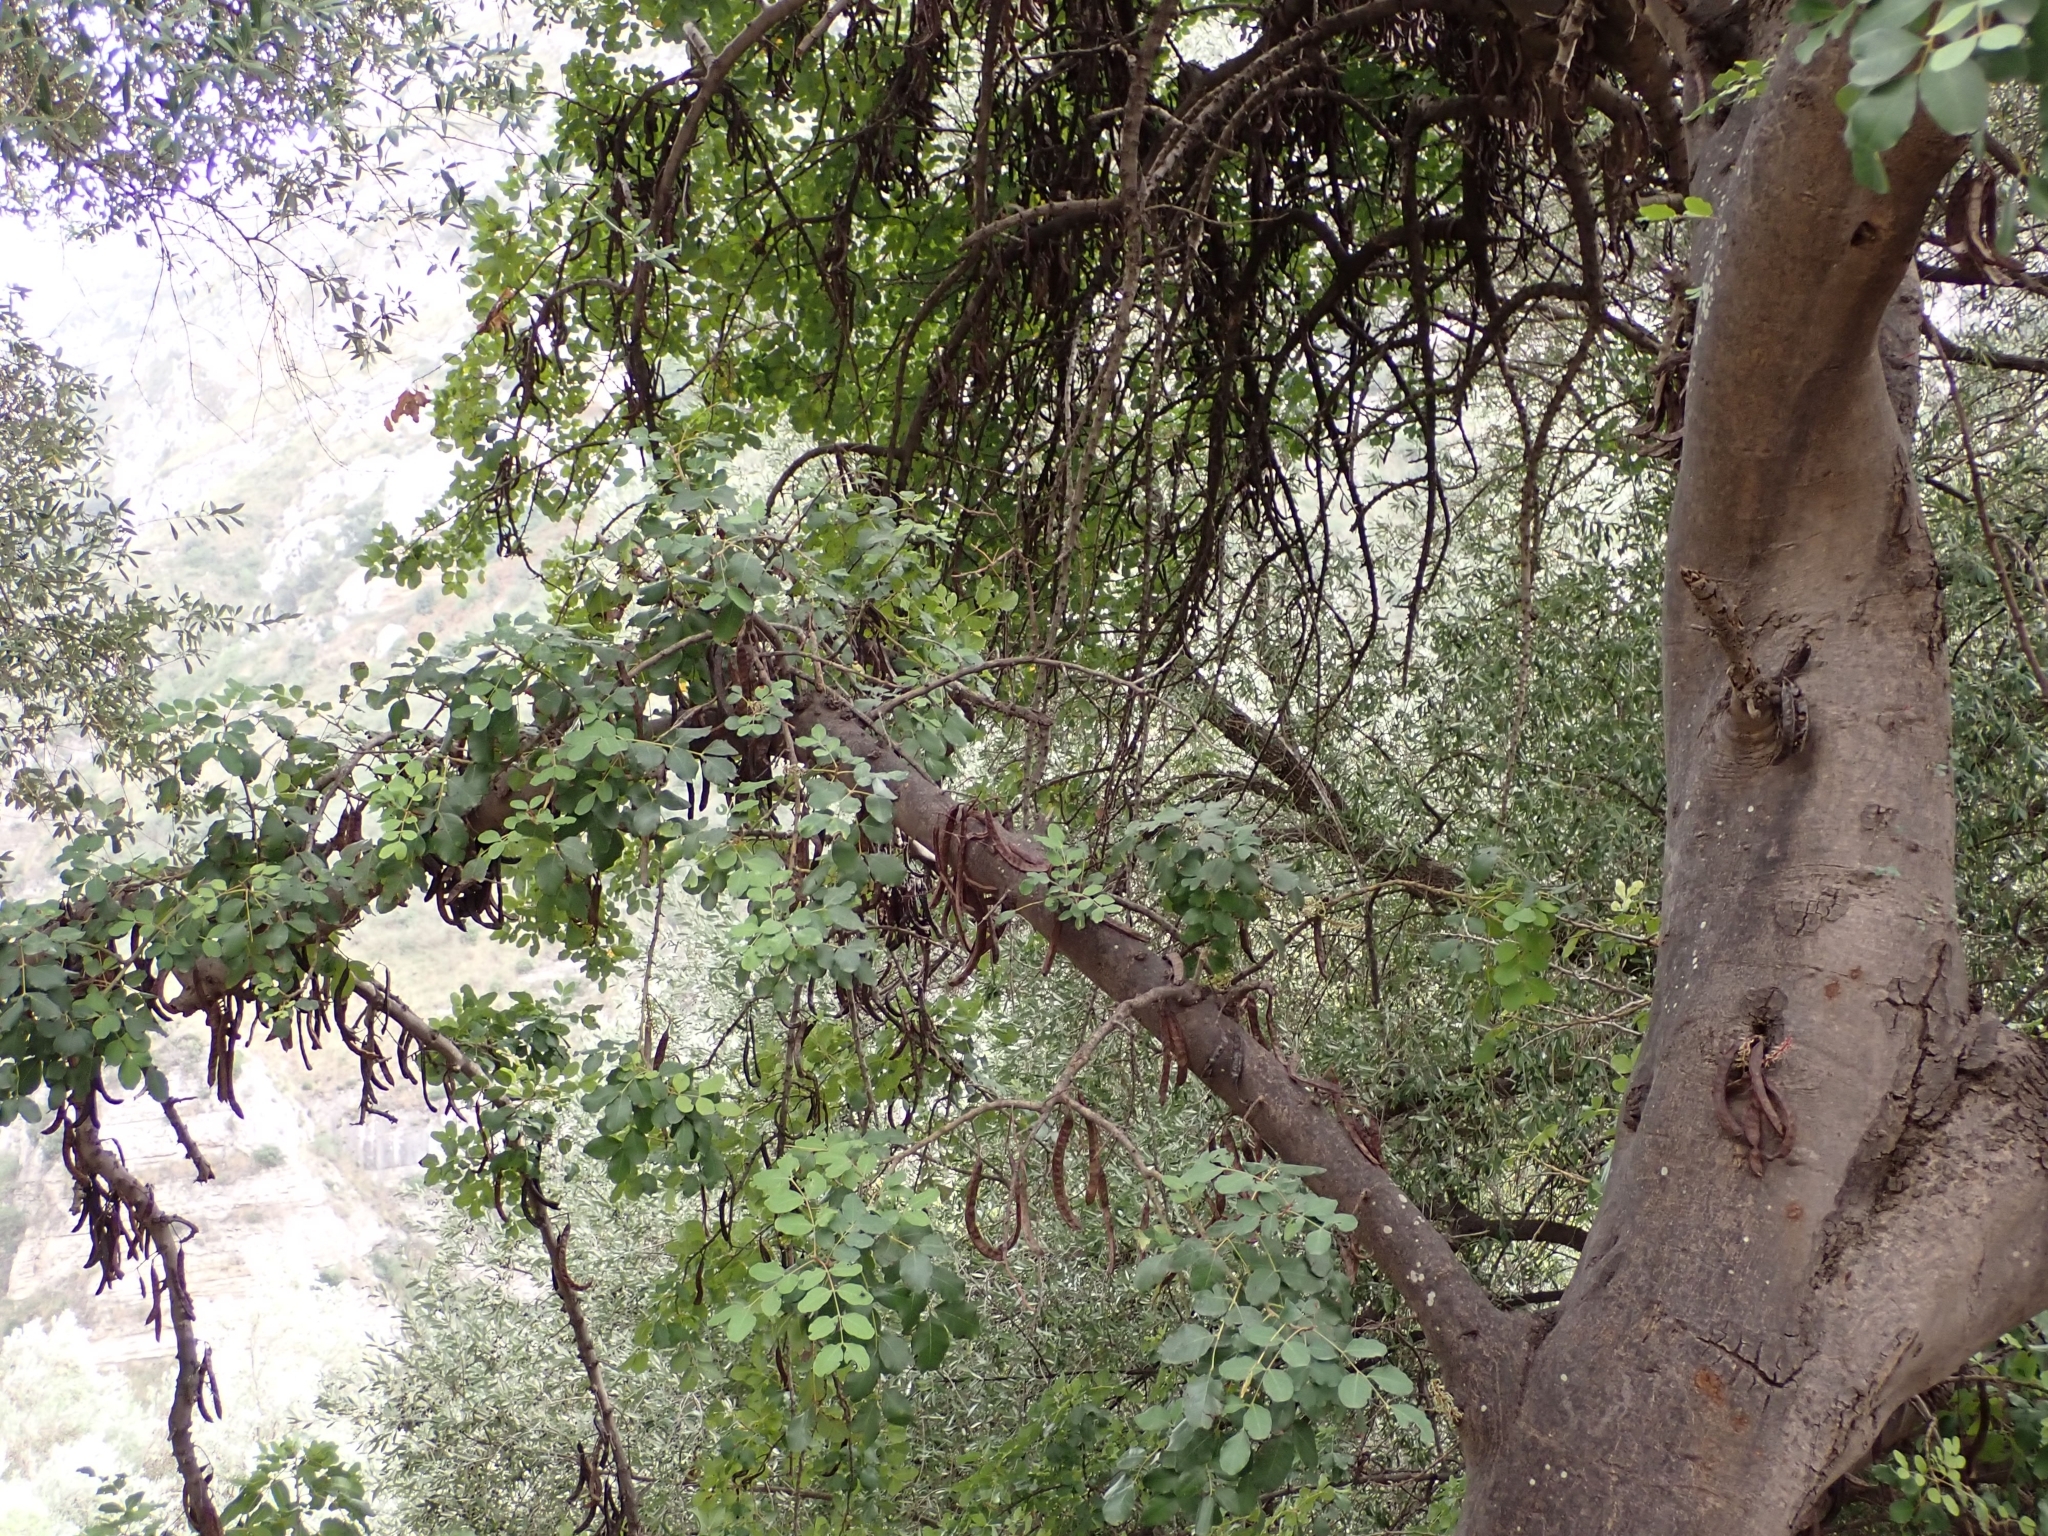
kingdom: Plantae
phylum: Tracheophyta
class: Magnoliopsida
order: Fabales
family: Fabaceae
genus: Ceratonia
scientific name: Ceratonia siliqua
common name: Carob
